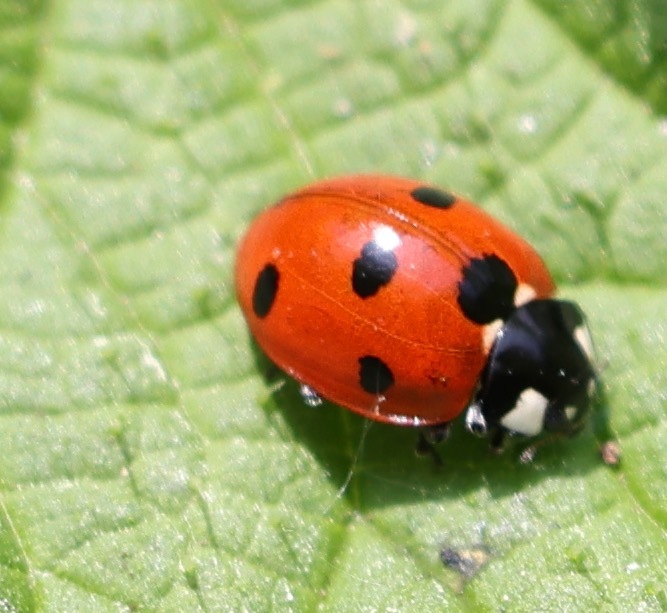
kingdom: Animalia
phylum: Arthropoda
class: Insecta
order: Coleoptera
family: Coccinellidae
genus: Coccinella
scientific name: Coccinella septempunctata
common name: Sevenspotted lady beetle
